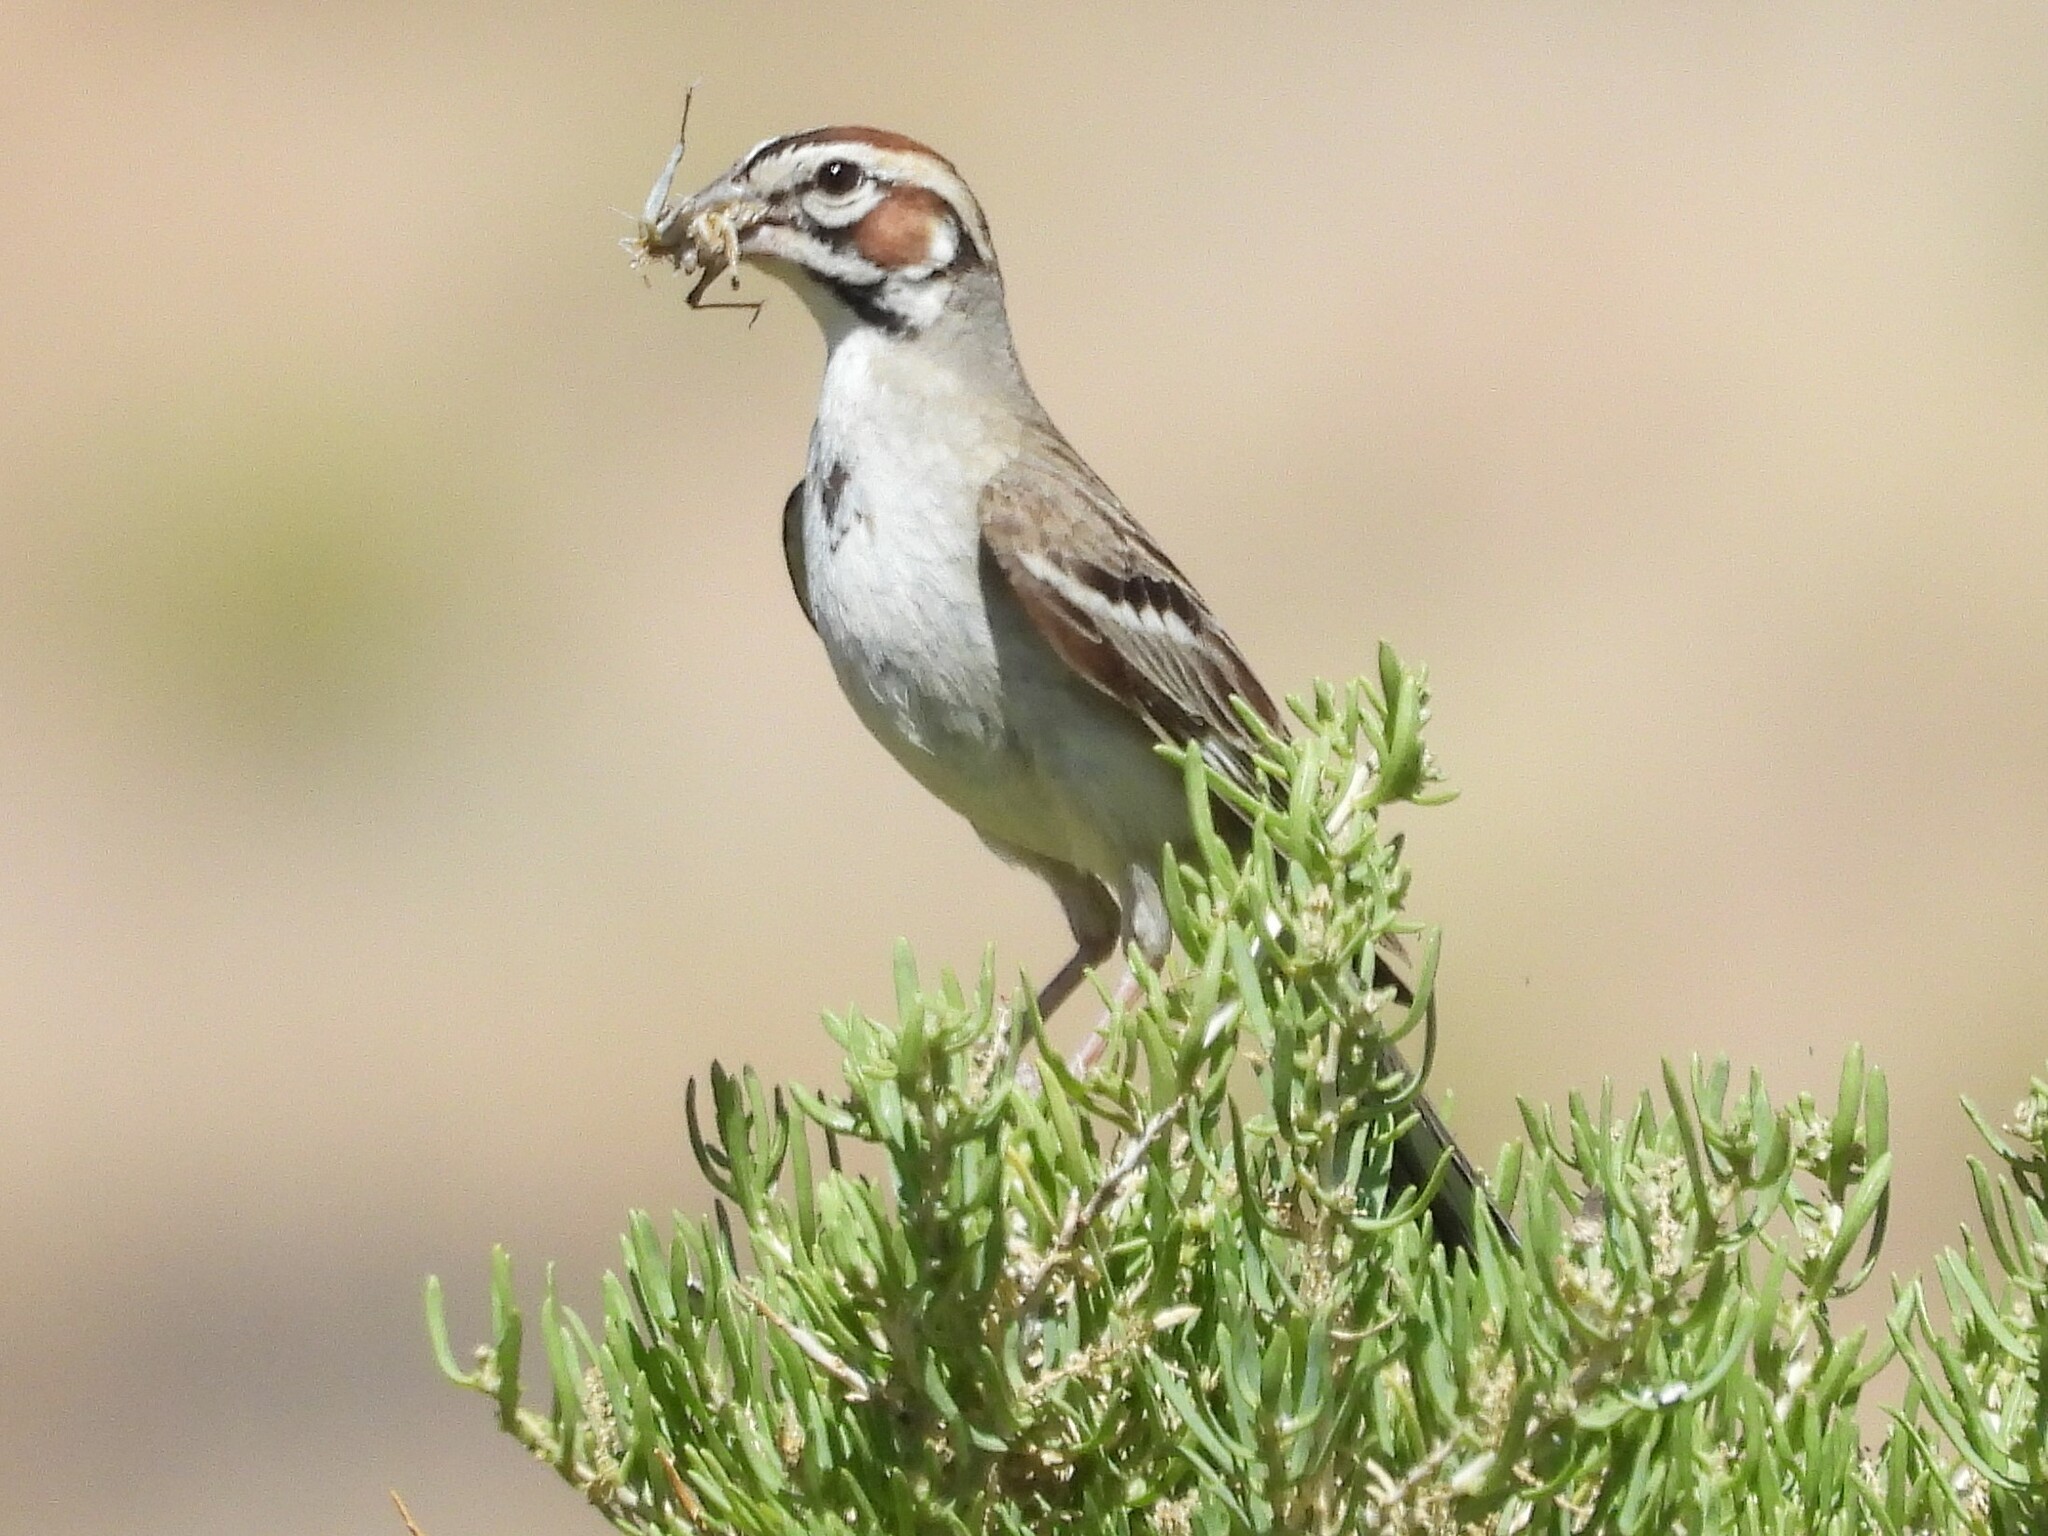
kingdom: Animalia
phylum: Chordata
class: Aves
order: Passeriformes
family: Passerellidae
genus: Chondestes
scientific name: Chondestes grammacus
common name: Lark sparrow
